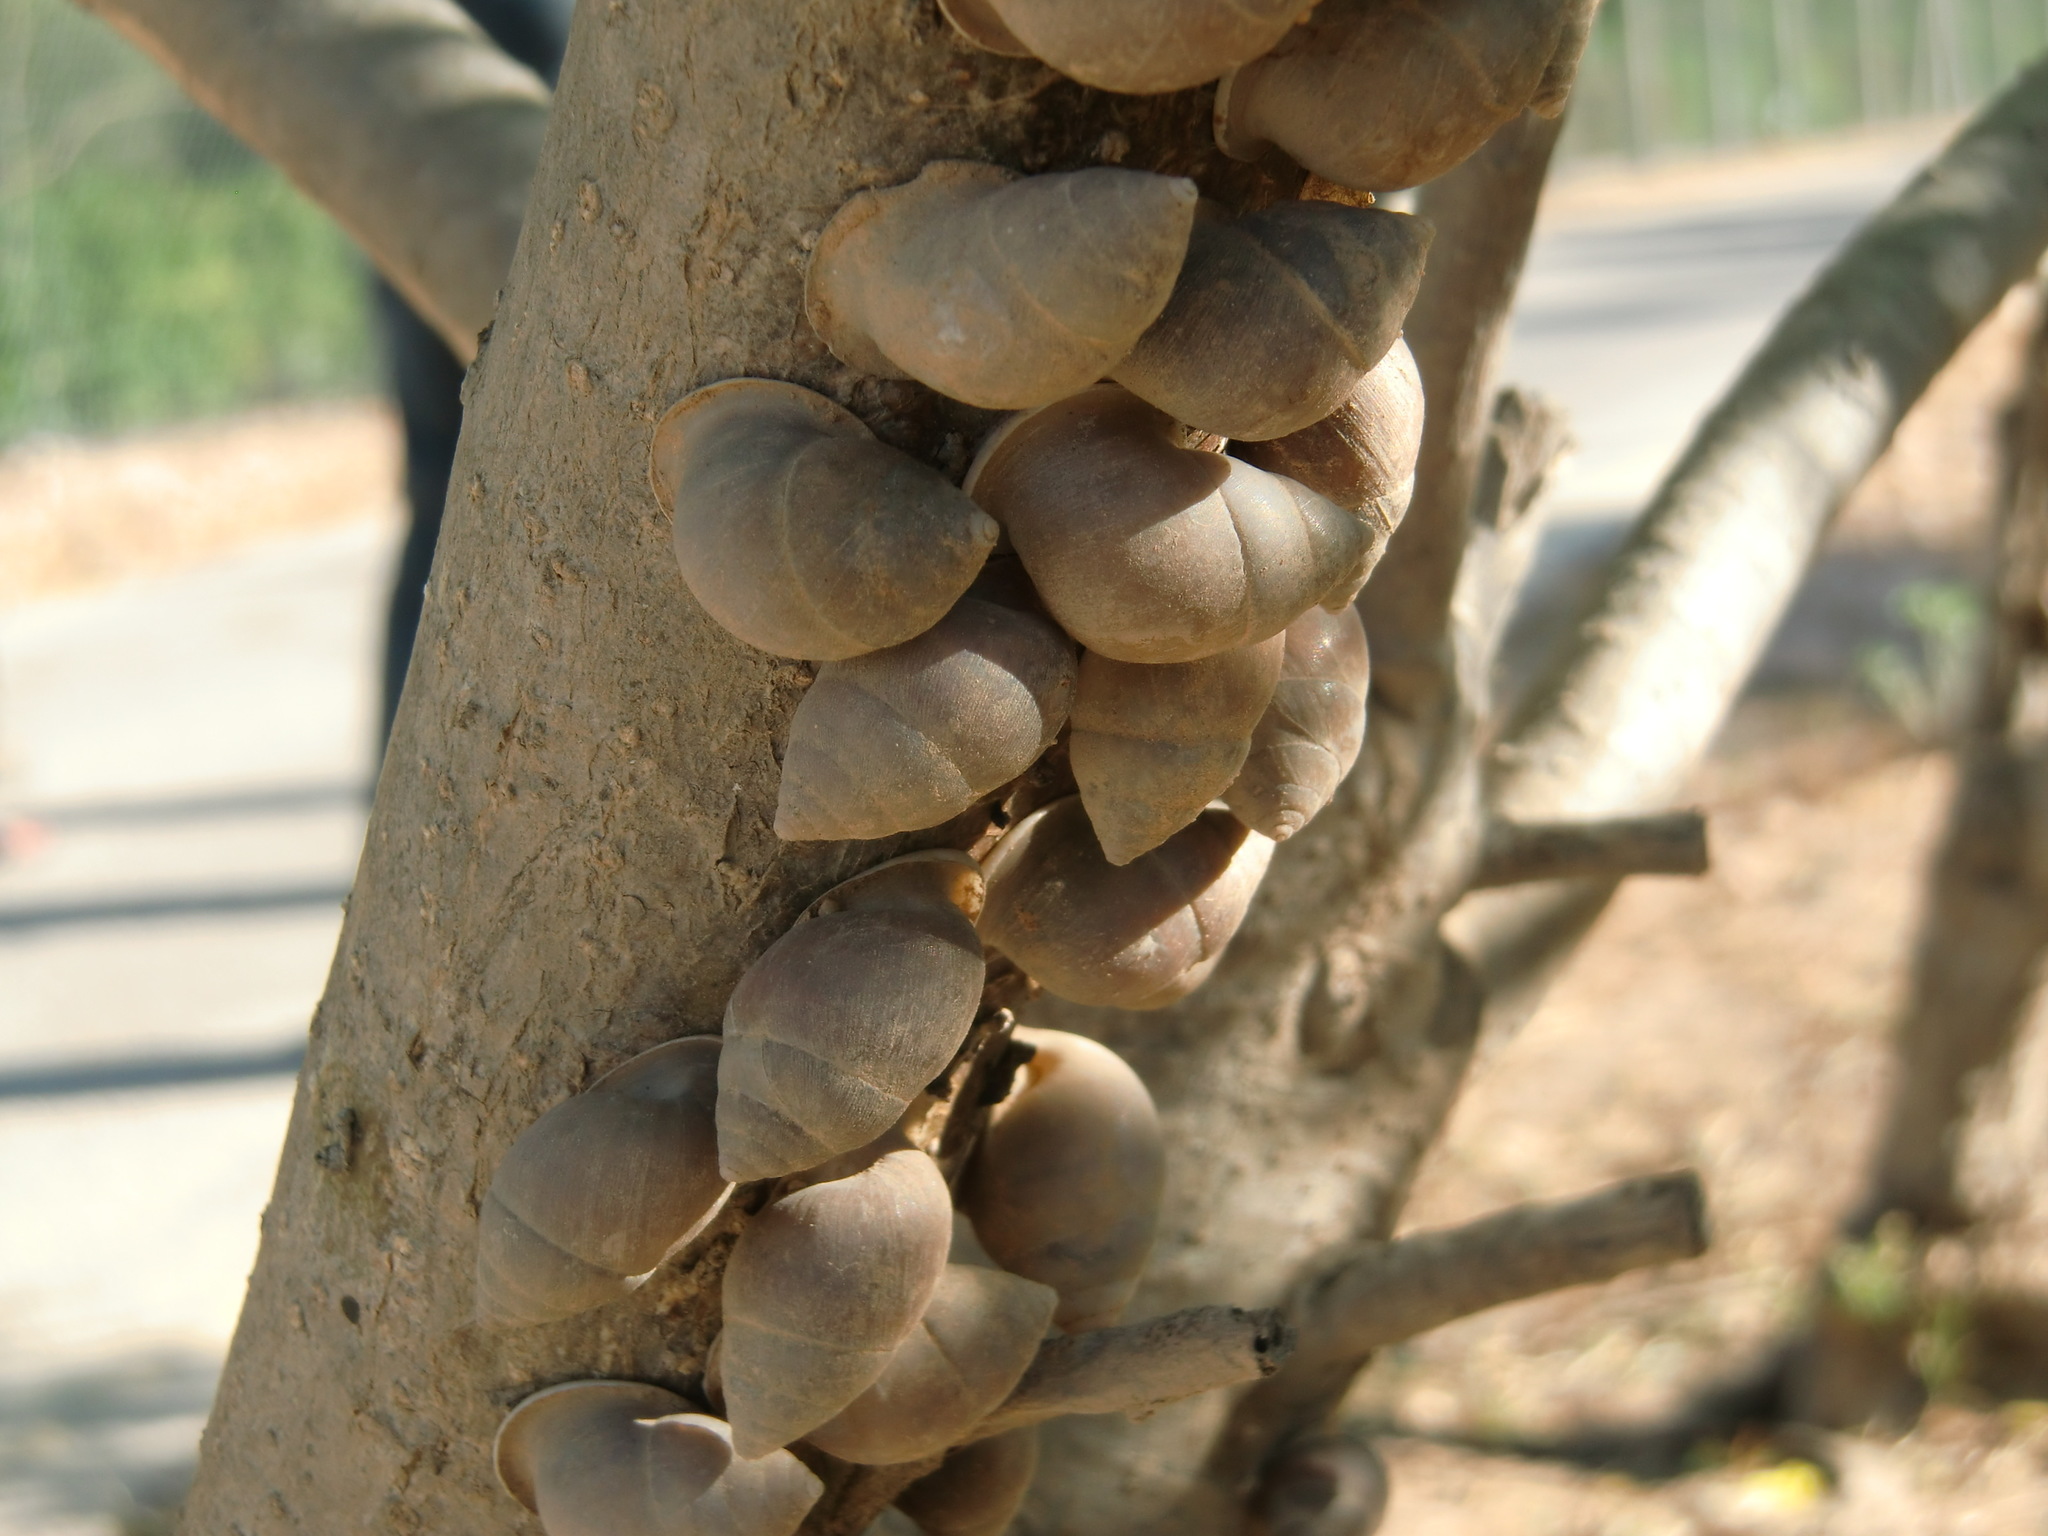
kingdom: Animalia
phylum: Mollusca
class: Gastropoda
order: Stylommatophora
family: Cerastidae
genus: Euryptyxis
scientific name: Euryptyxis latireflexa
